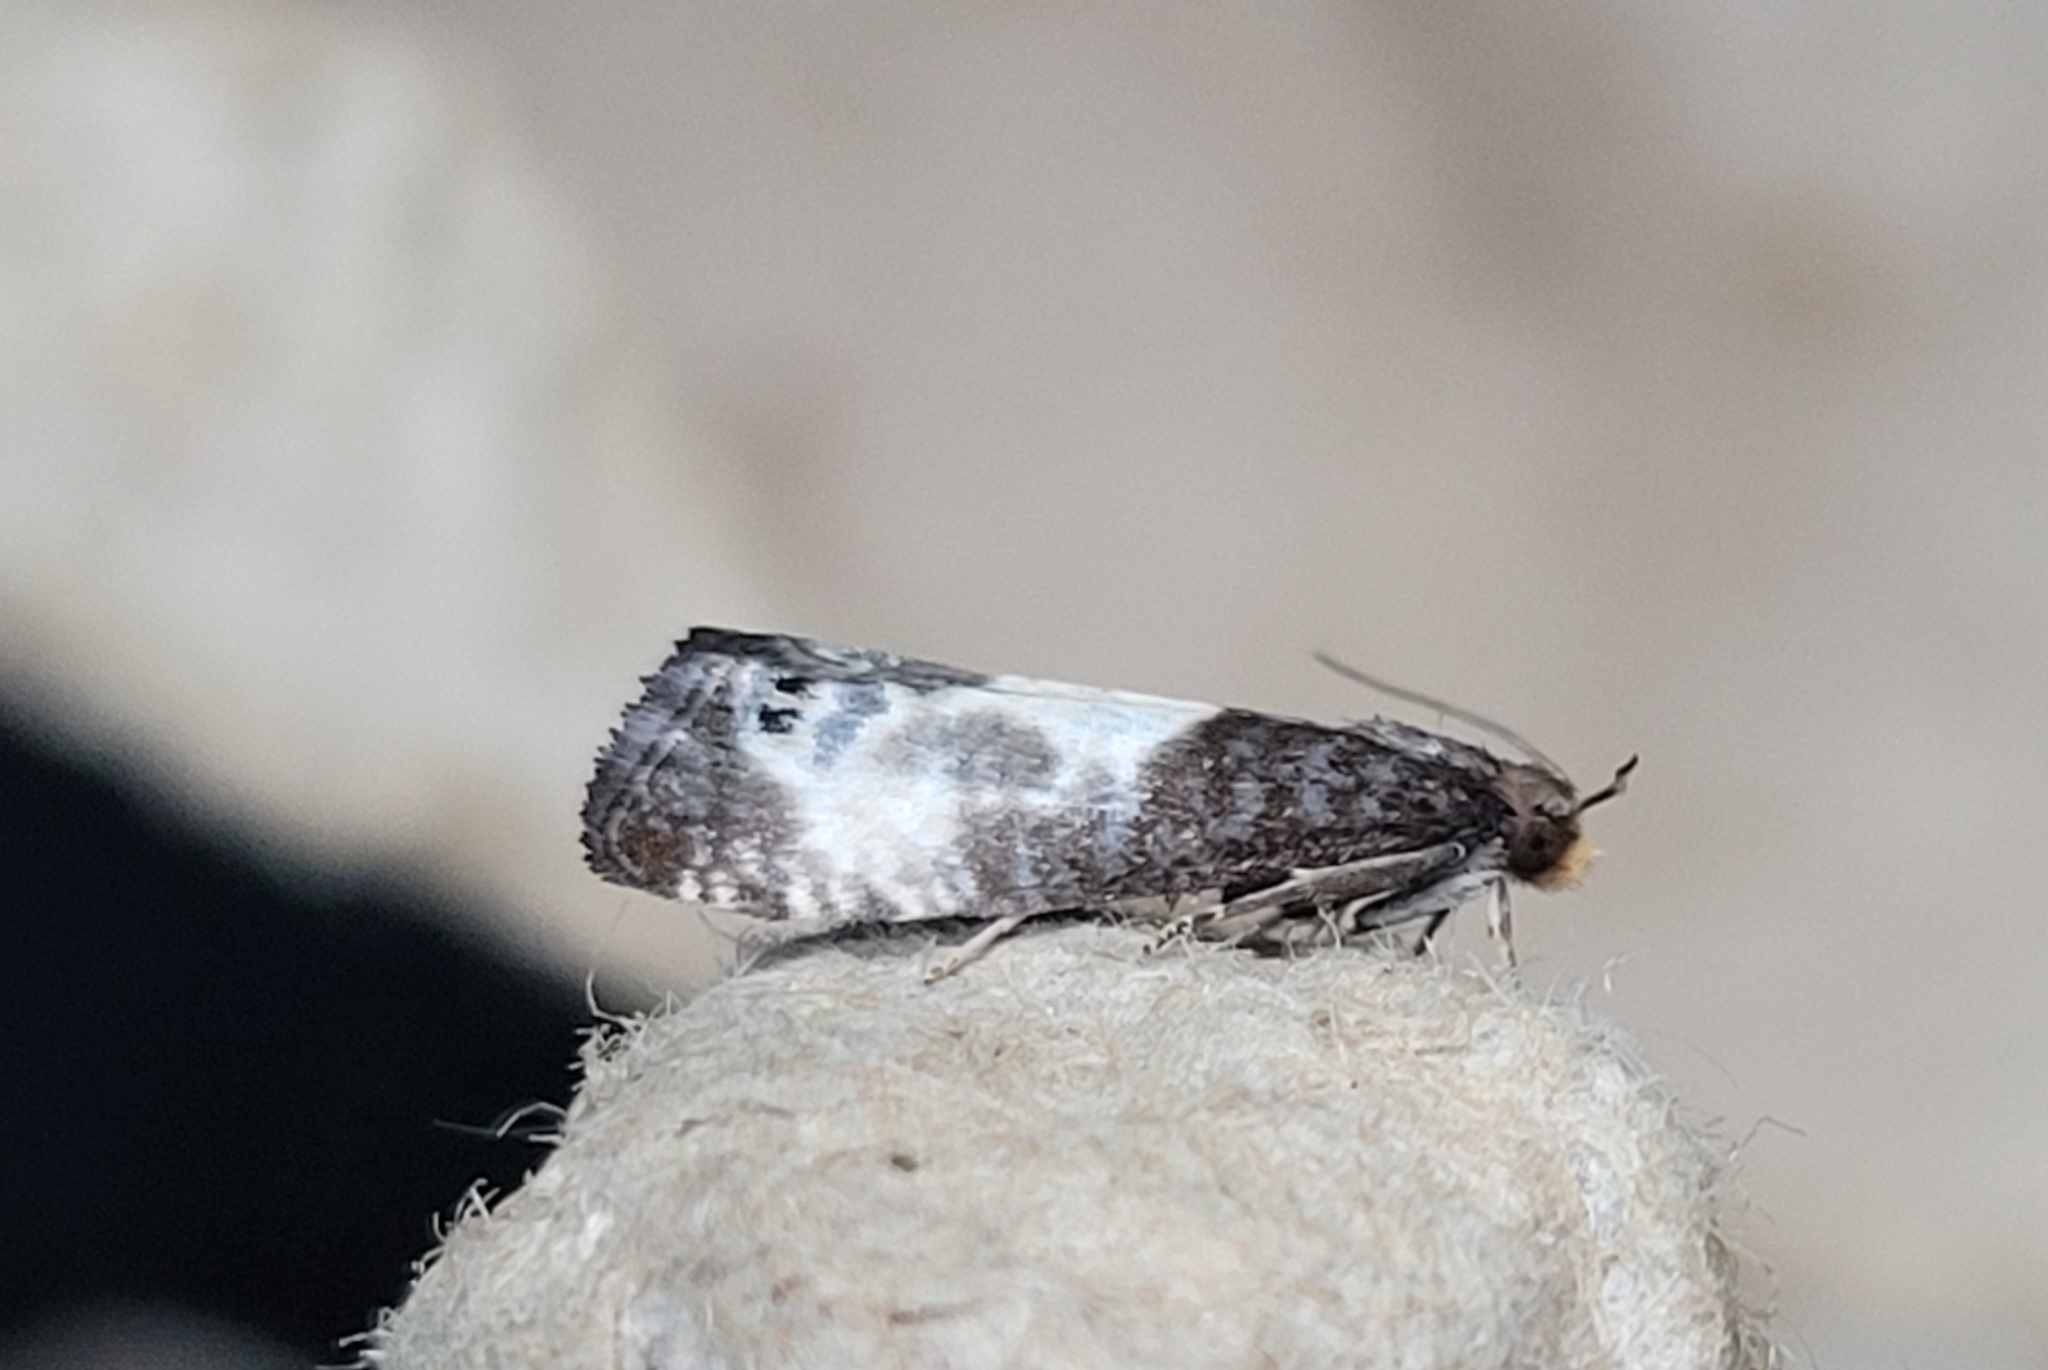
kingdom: Animalia
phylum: Arthropoda
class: Insecta
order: Lepidoptera
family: Tortricidae
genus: Notocelia
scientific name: Notocelia cynosbatella
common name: Yellow-faced bell moth
